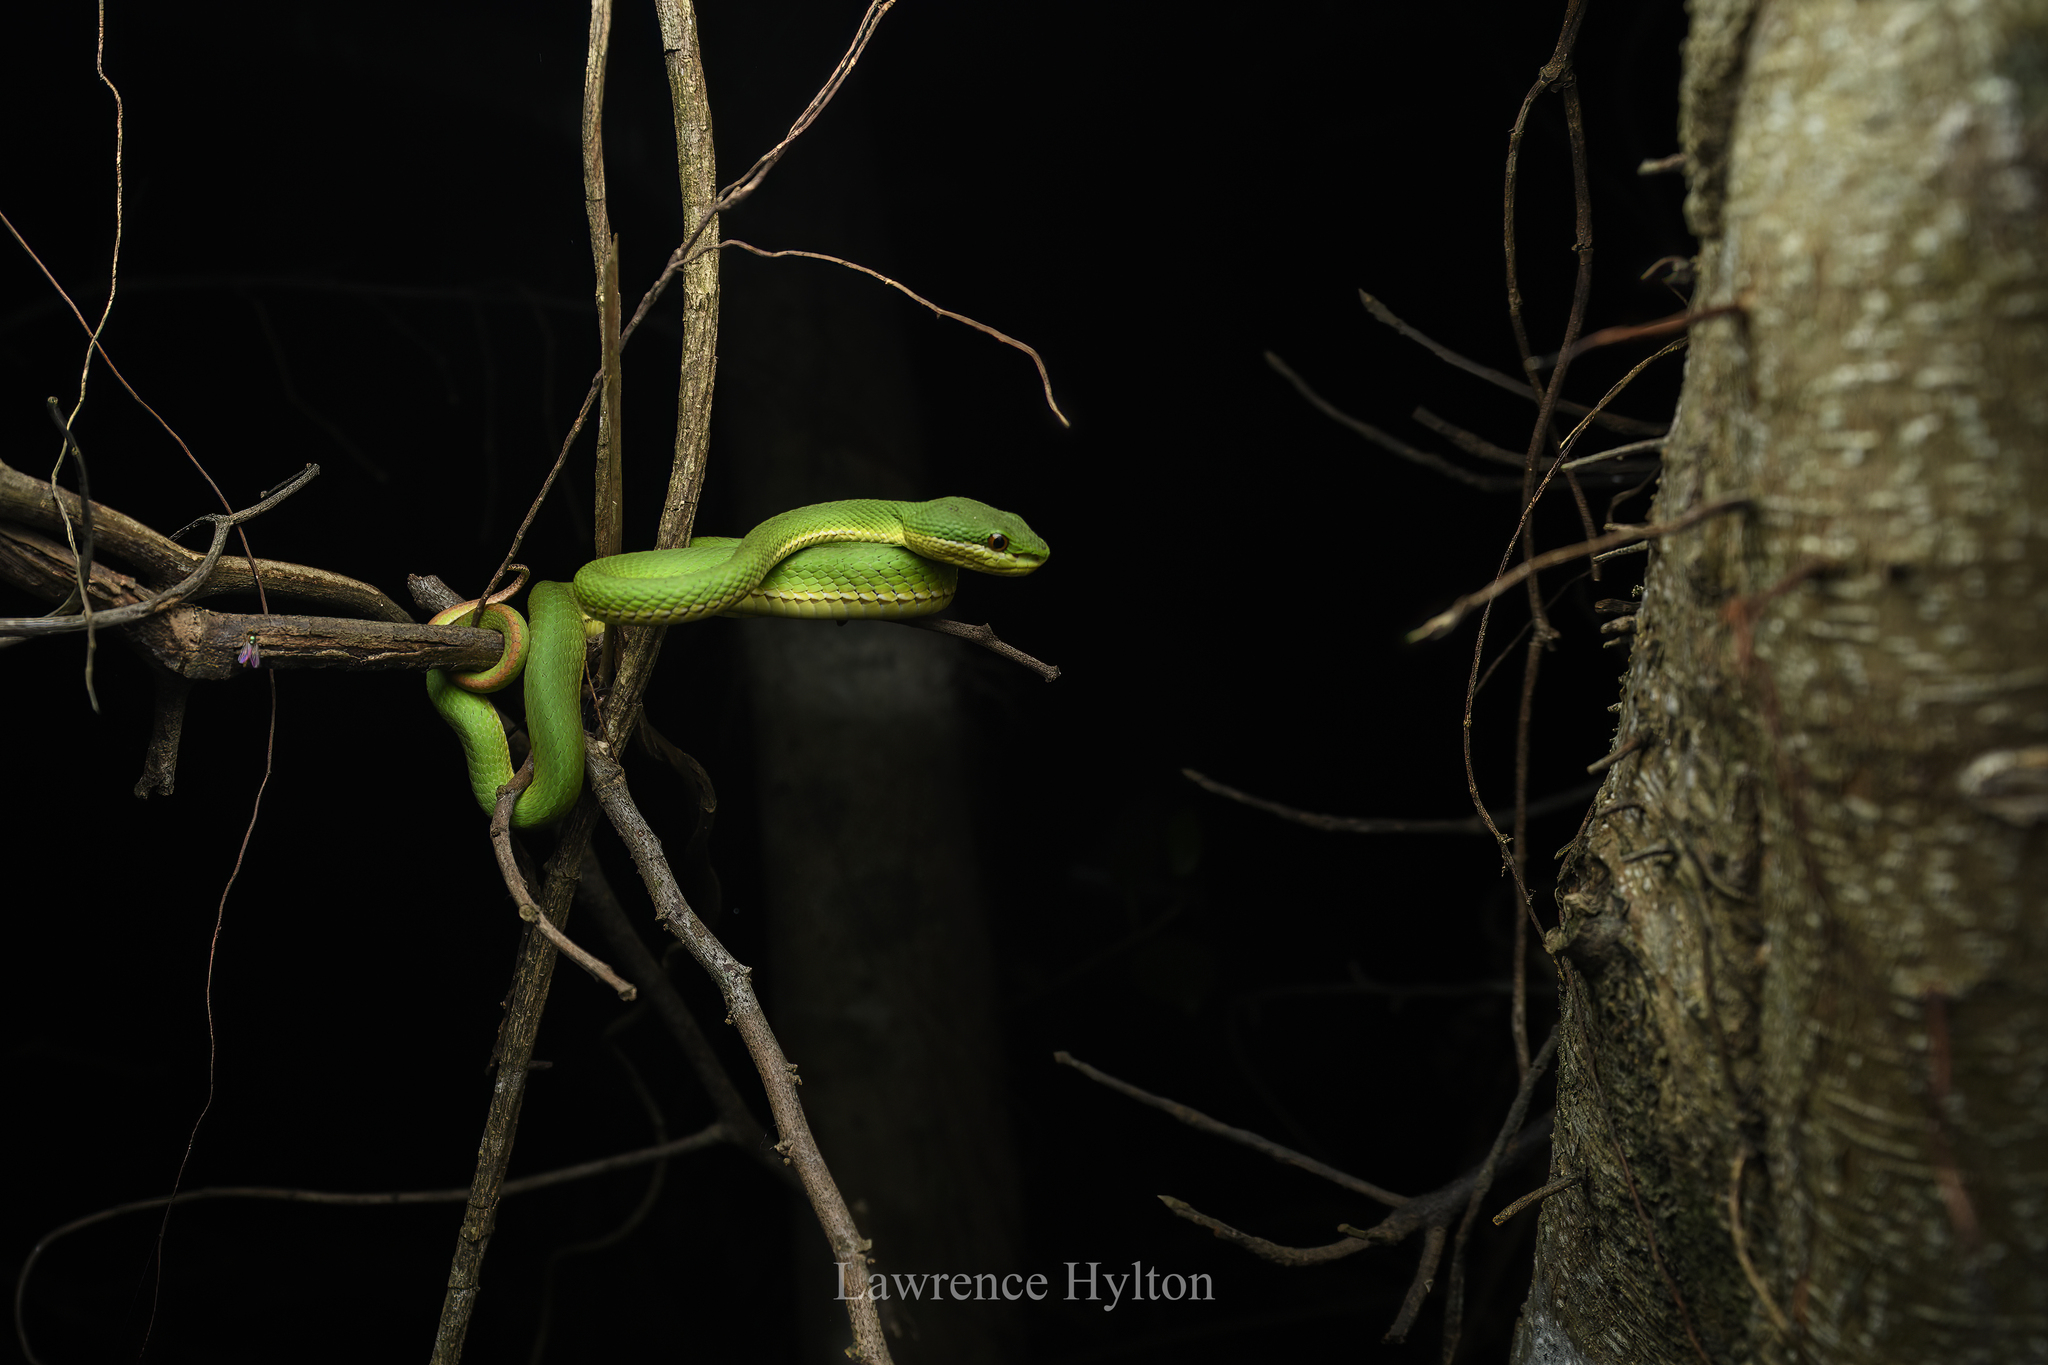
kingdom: Animalia
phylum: Chordata
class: Squamata
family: Viperidae
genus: Trimeresurus
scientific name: Trimeresurus albolabris
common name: White-lipped pitviper
